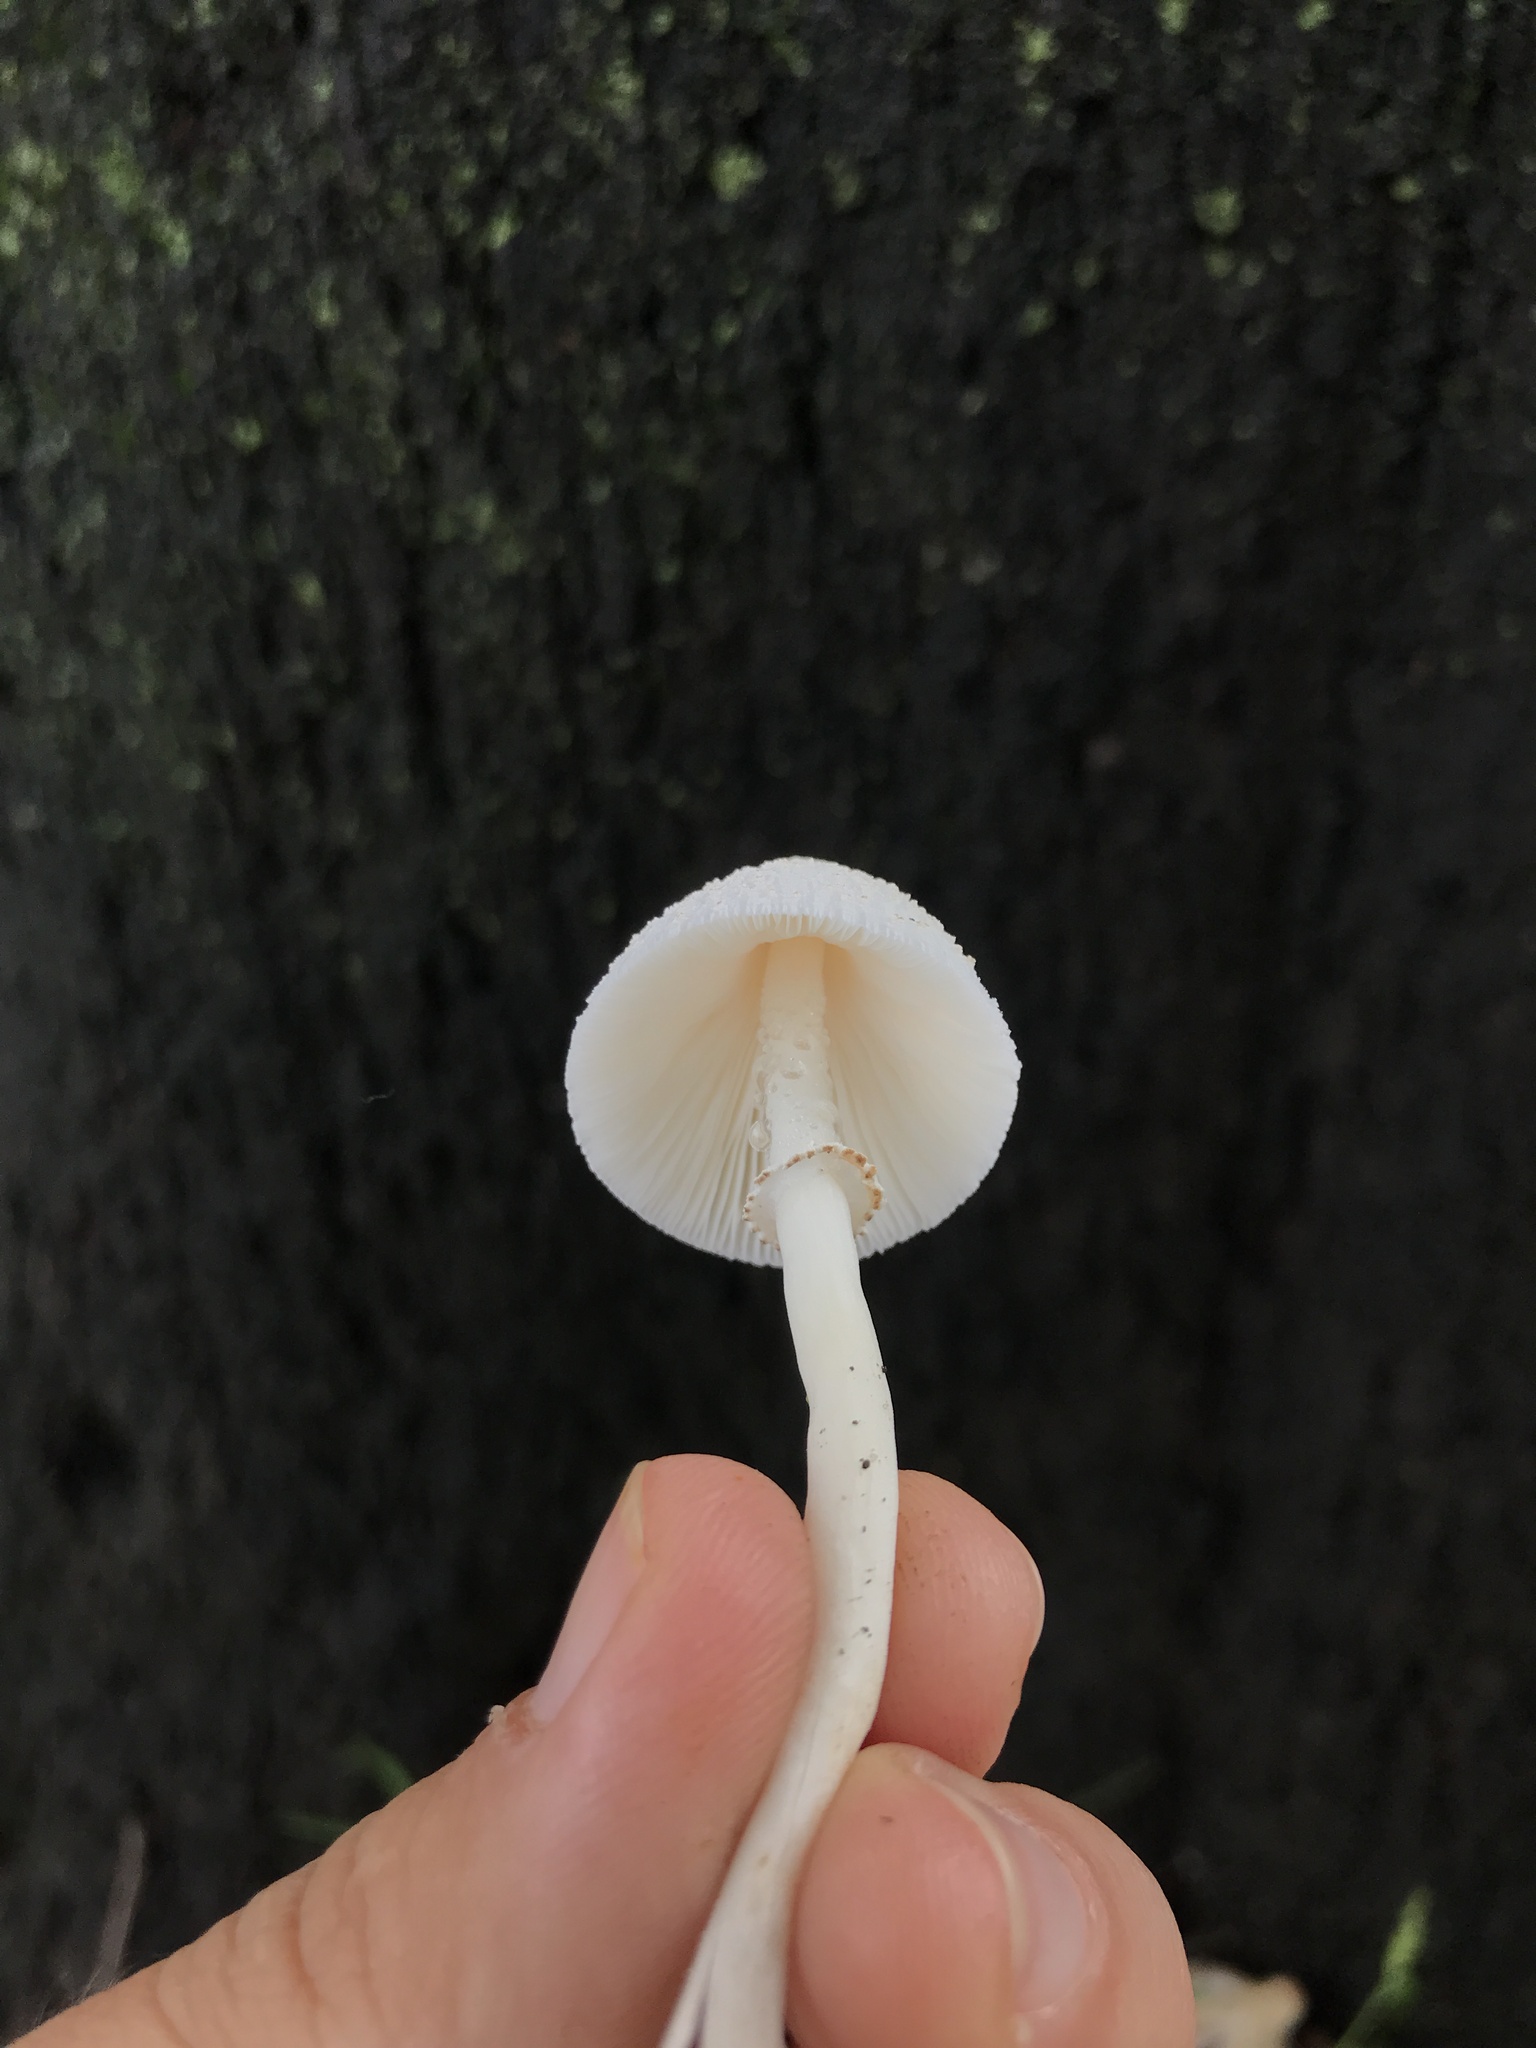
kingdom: Fungi
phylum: Basidiomycota
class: Agaricomycetes
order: Agaricales
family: Agaricaceae
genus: Leucocoprinus
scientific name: Leucocoprinus cepistipes
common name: Onion-stalk parasol
